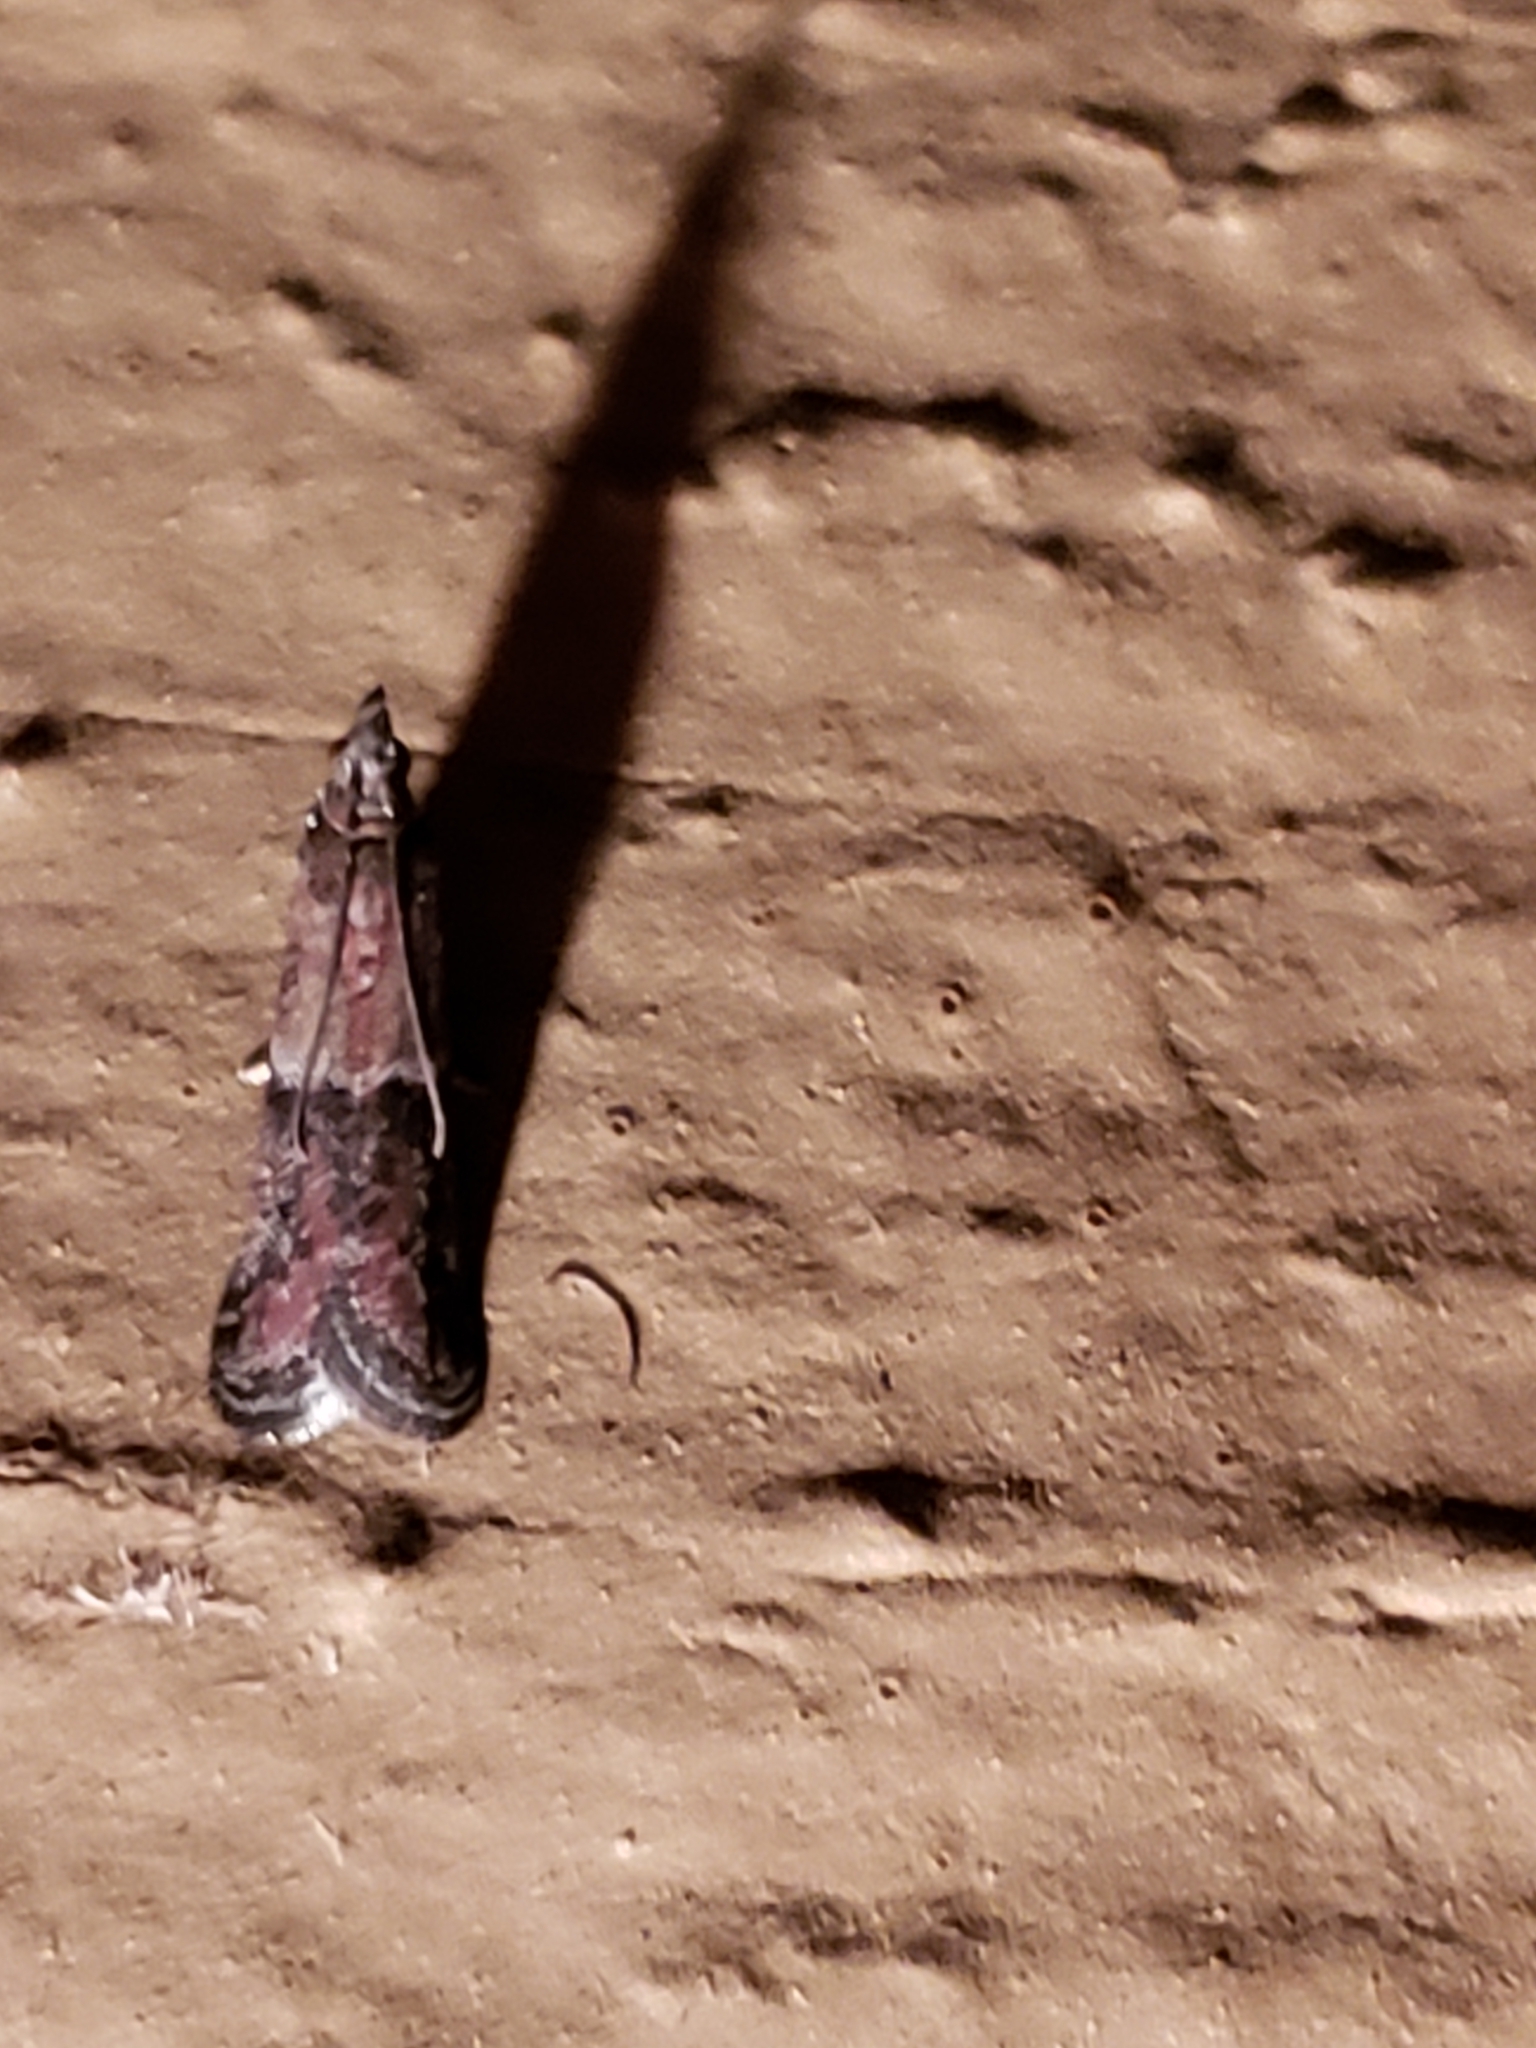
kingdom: Animalia
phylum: Arthropoda
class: Insecta
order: Lepidoptera
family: Pyralidae
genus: Ephestiodes
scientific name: Ephestiodes infimella
